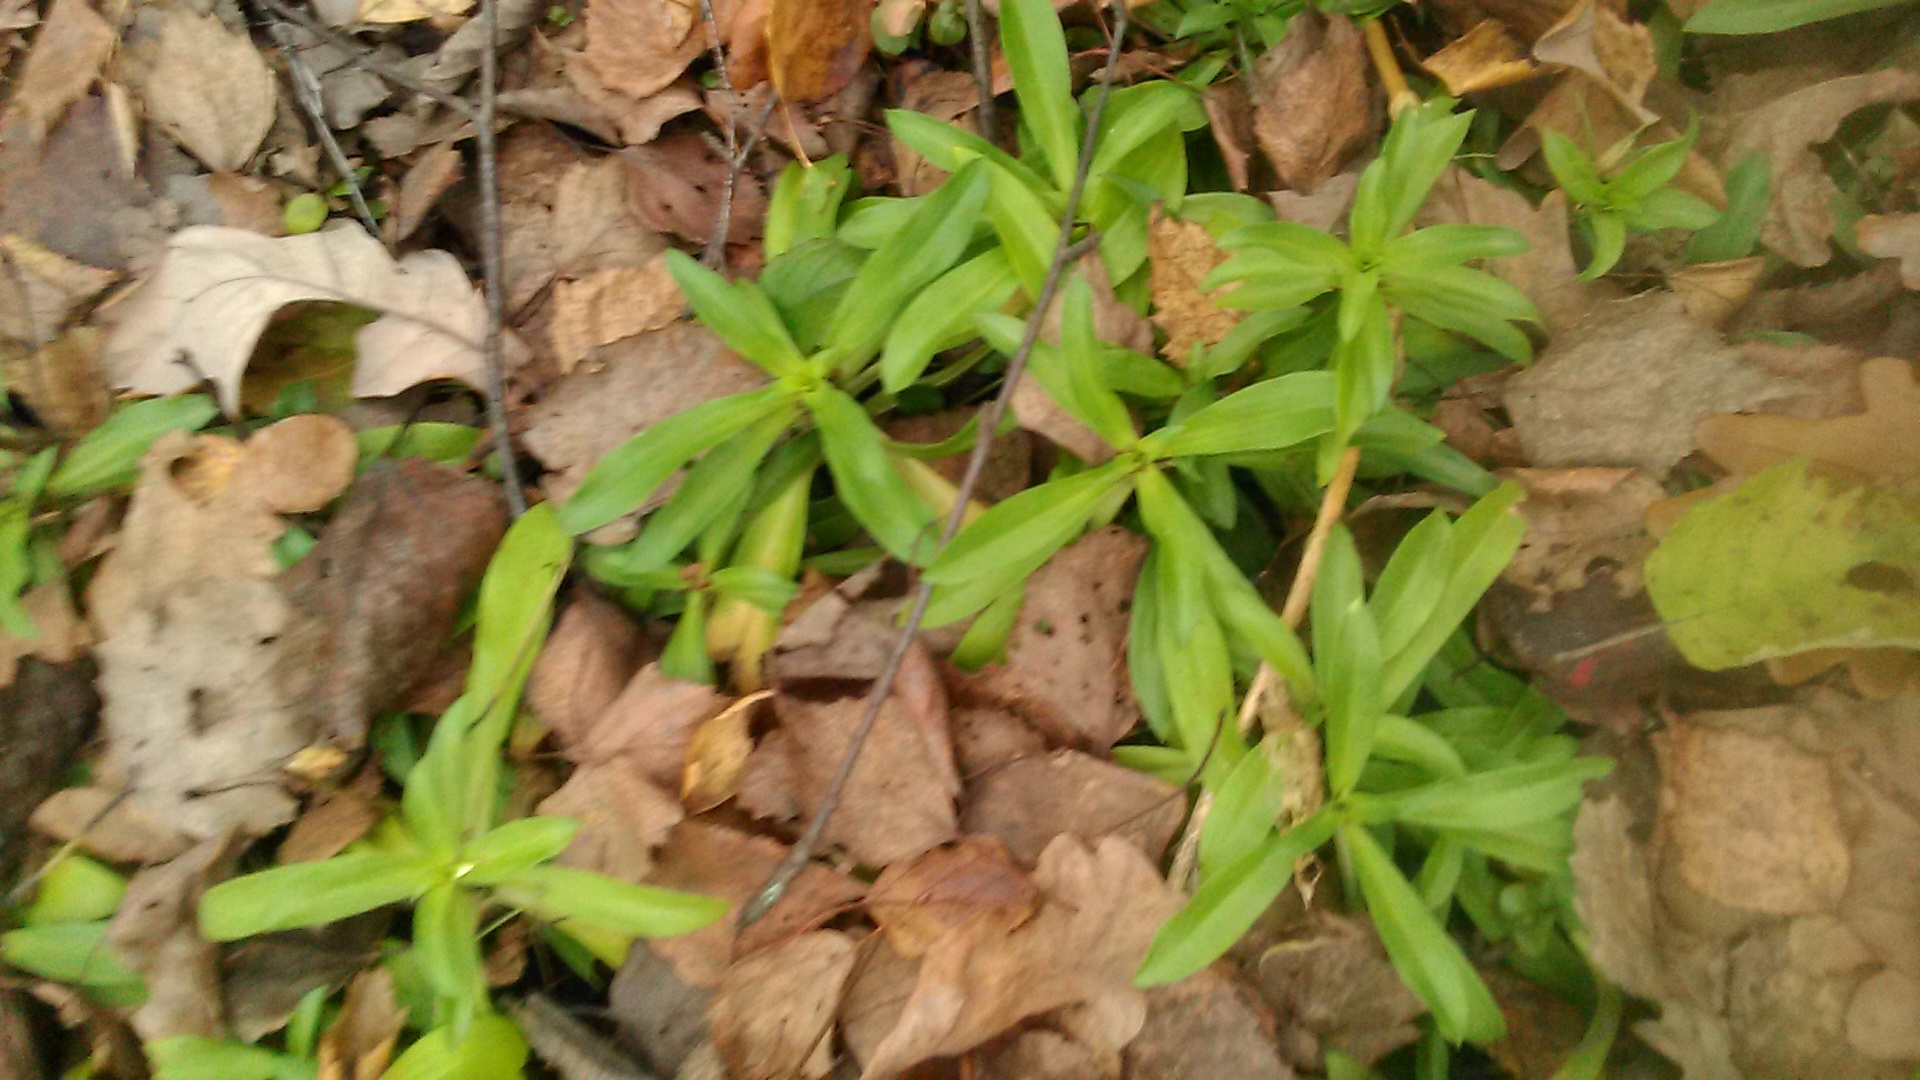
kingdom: Plantae
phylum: Tracheophyta
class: Magnoliopsida
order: Caryophyllales
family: Caryophyllaceae
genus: Dianthus
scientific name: Dianthus barbatus
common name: Sweet-william
